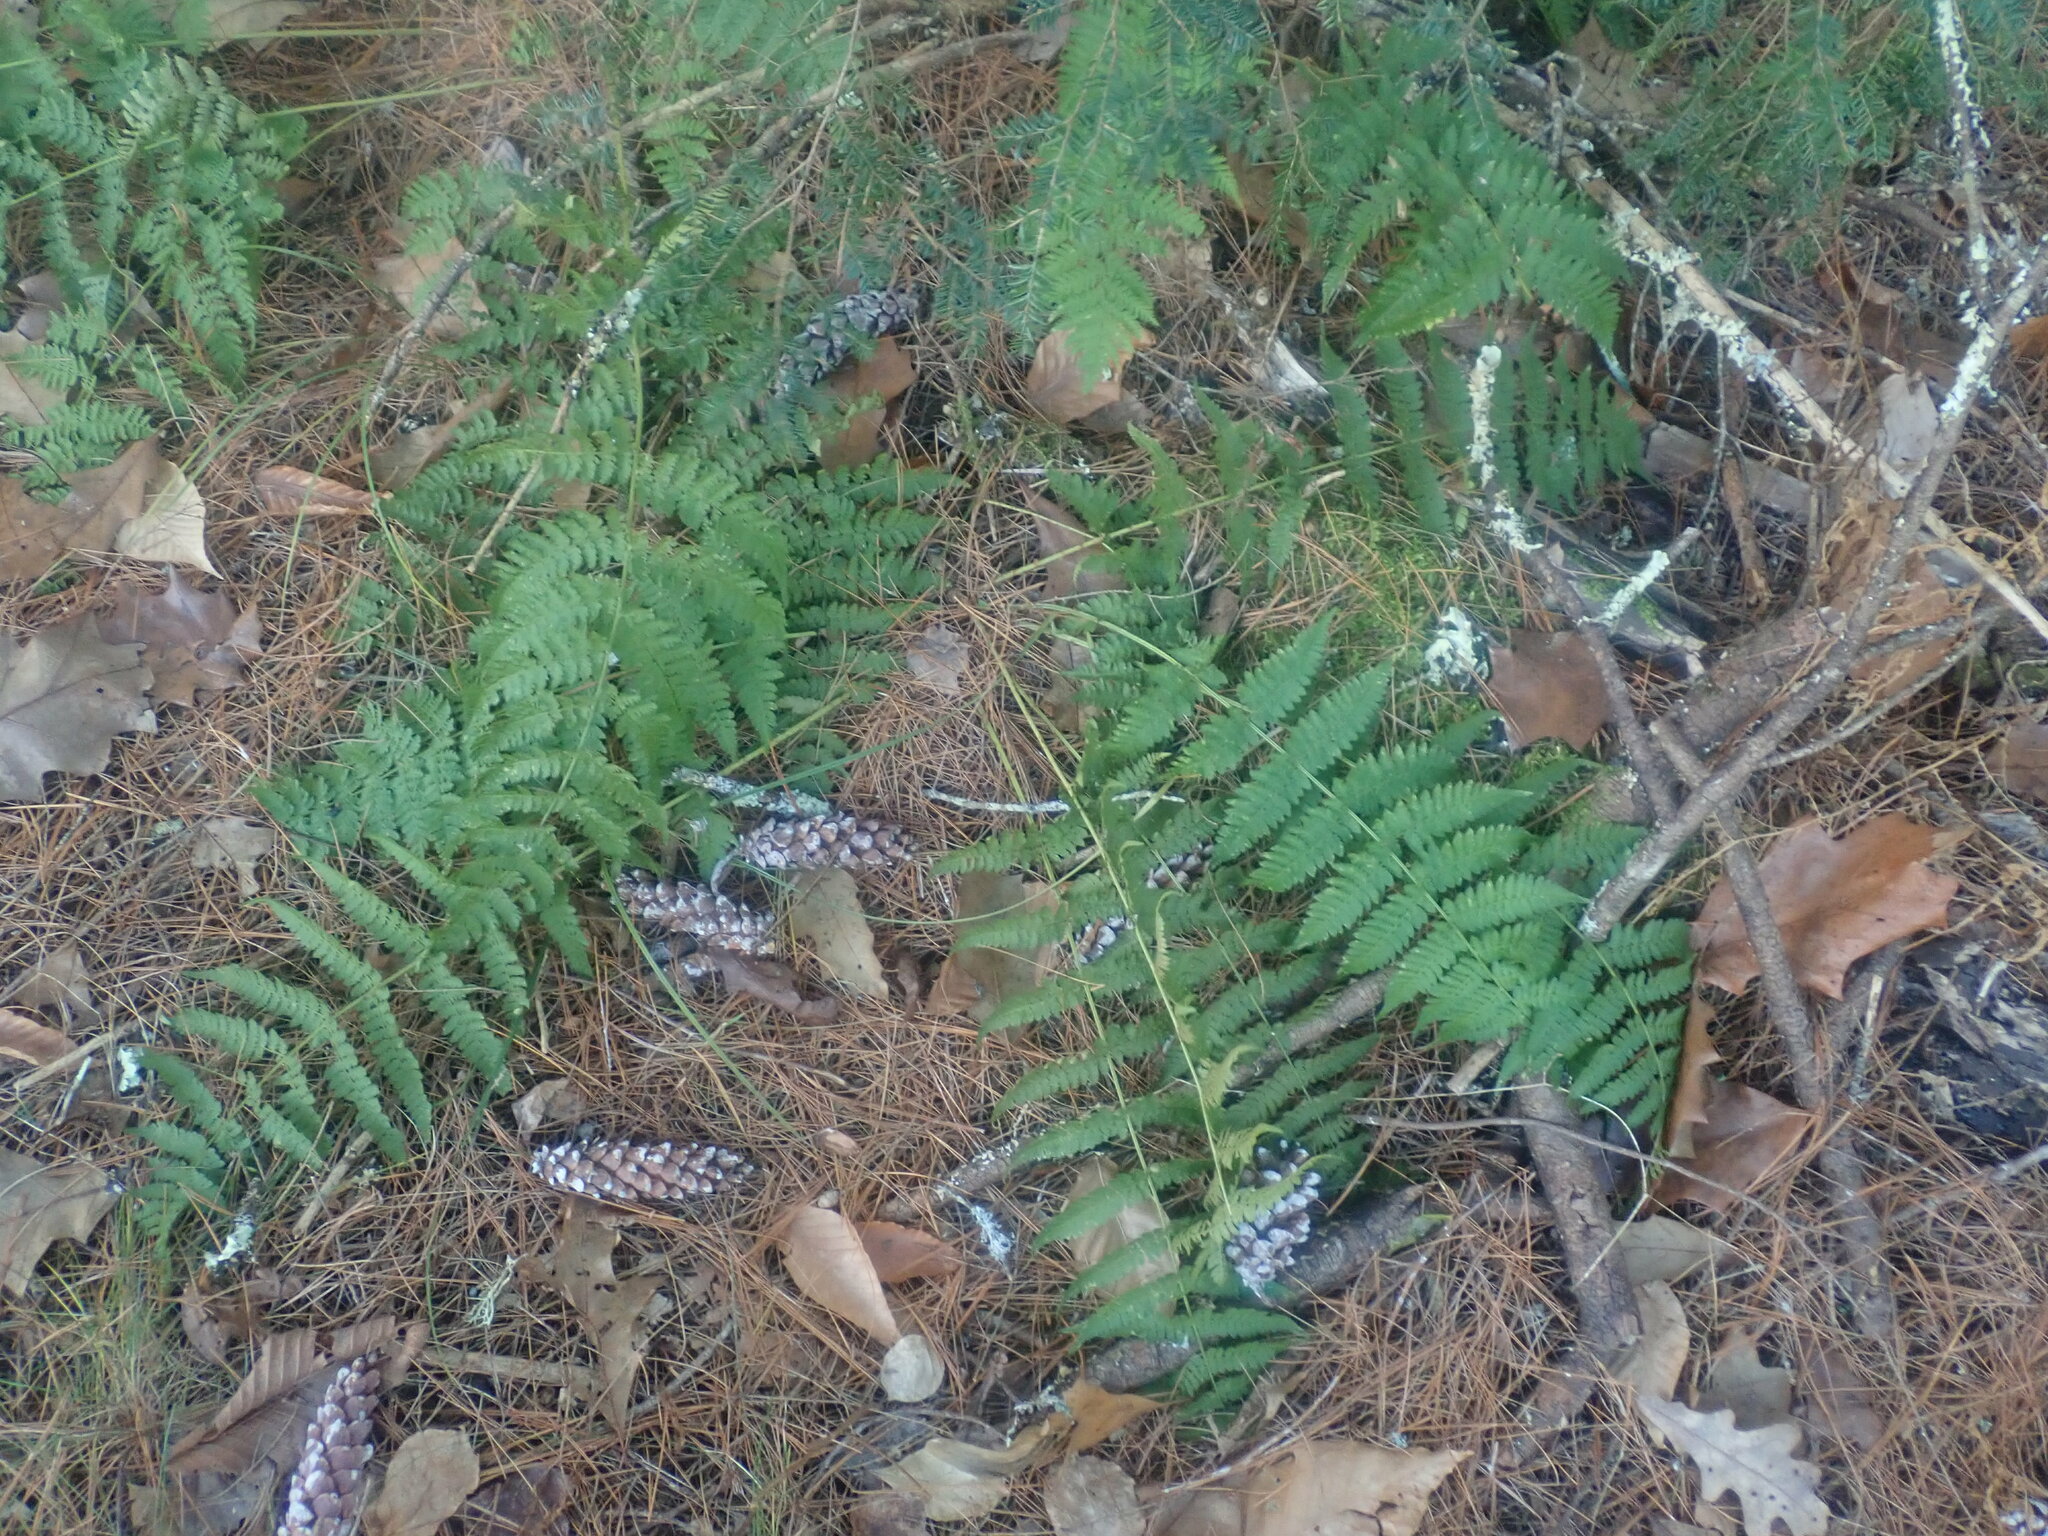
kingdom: Plantae
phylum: Tracheophyta
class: Polypodiopsida
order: Polypodiales
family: Dryopteridaceae
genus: Dryopteris
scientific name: Dryopteris intermedia
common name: Evergreen wood fern
